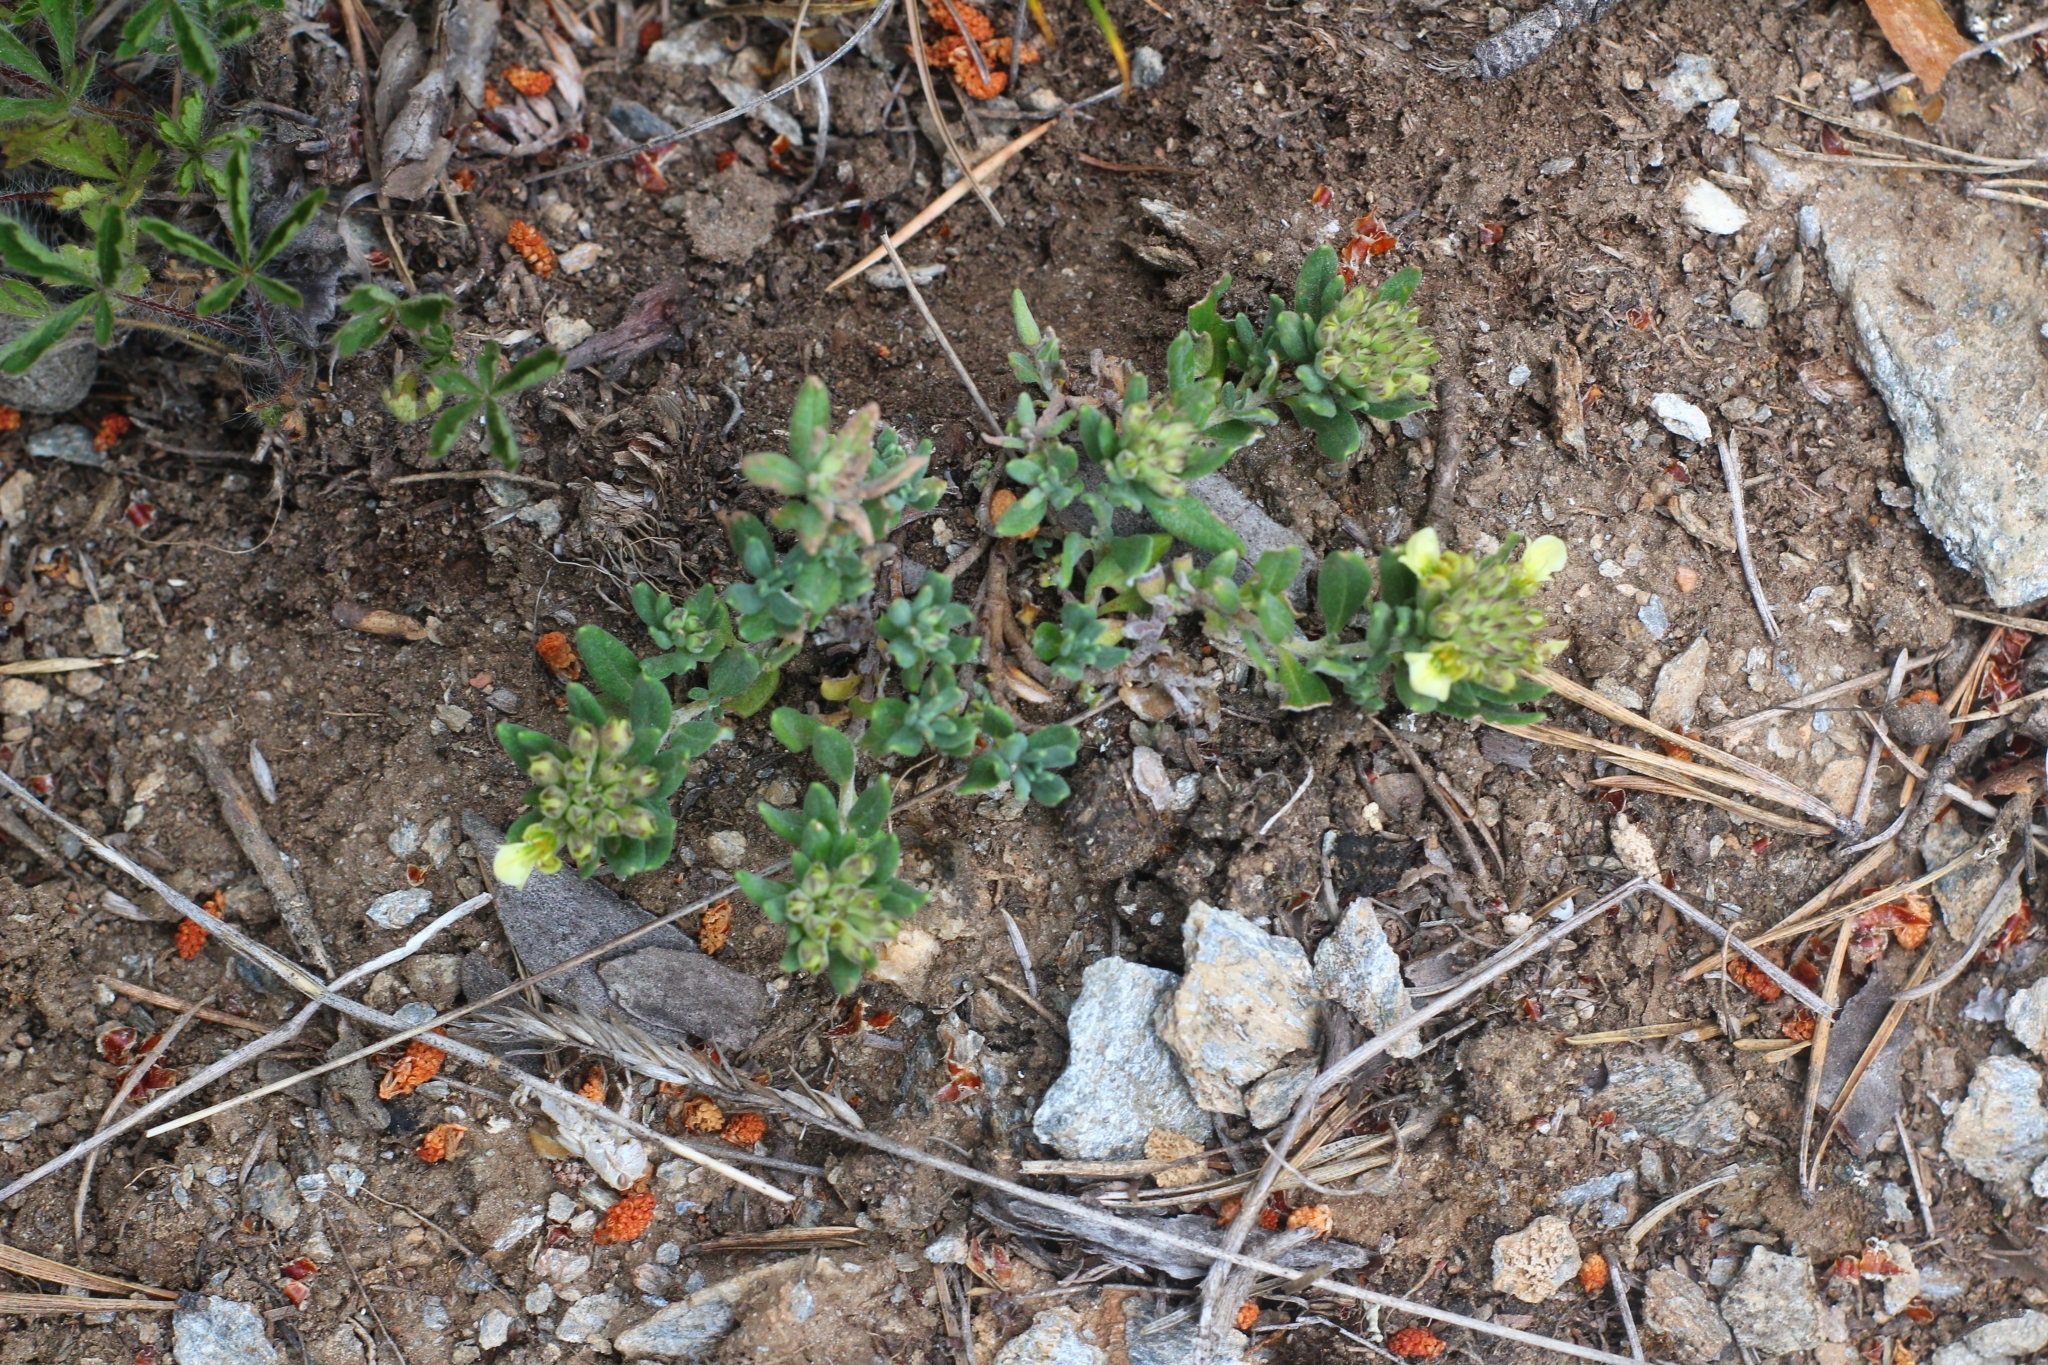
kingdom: Plantae
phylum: Tracheophyta
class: Magnoliopsida
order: Lamiales
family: Lamiaceae
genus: Teucrium
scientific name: Teucrium montanum
